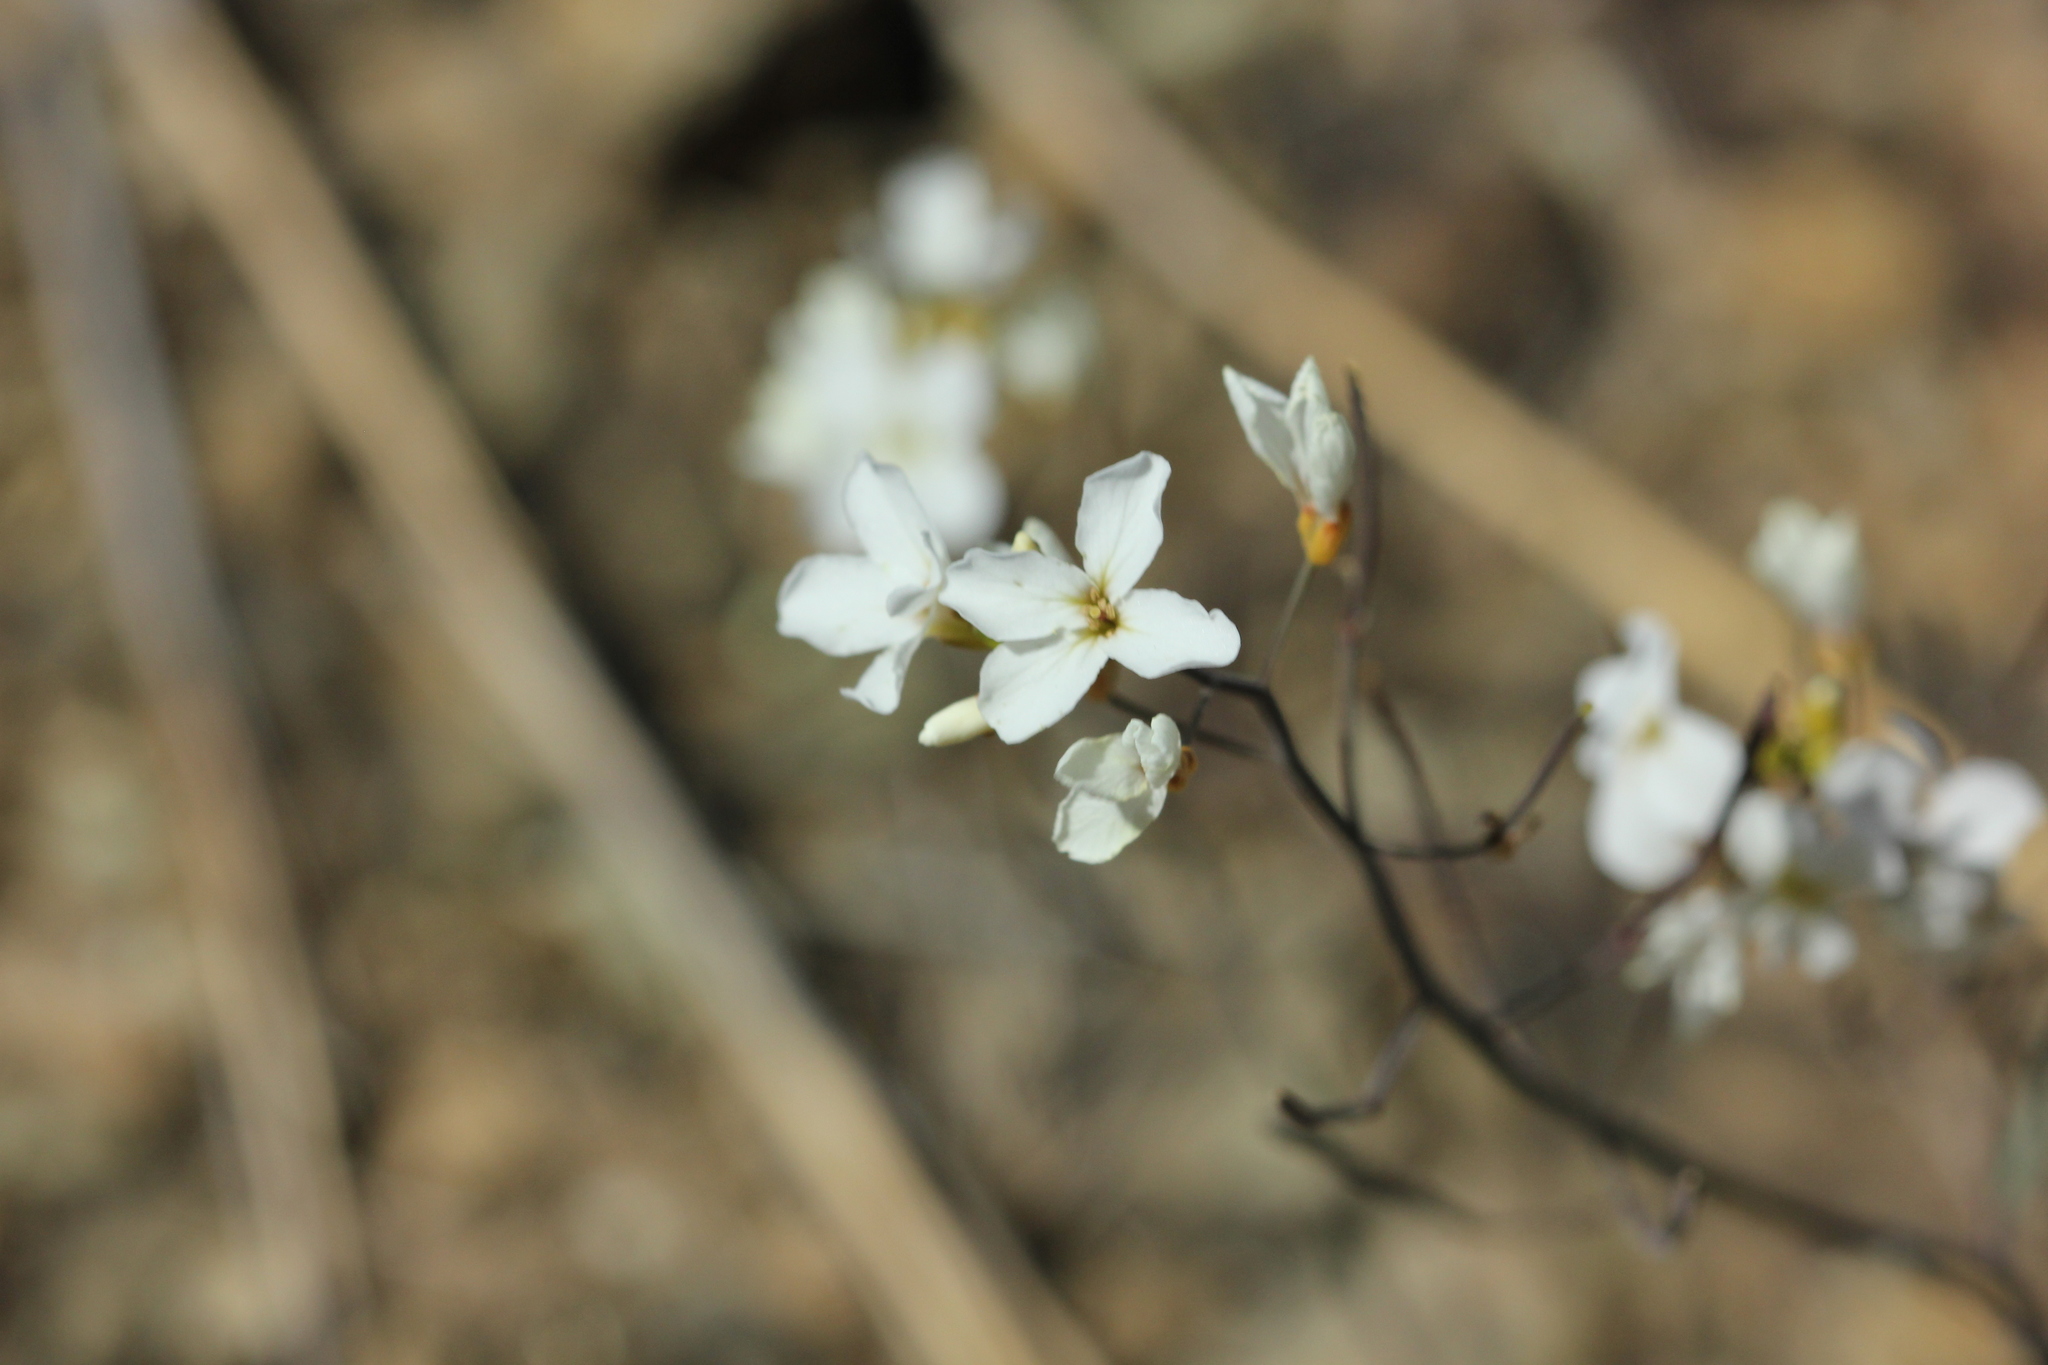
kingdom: Plantae
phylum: Tracheophyta
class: Magnoliopsida
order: Brassicales
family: Brassicaceae
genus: Arabidopsis
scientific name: Arabidopsis lyrata
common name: Lyrate rockcress
